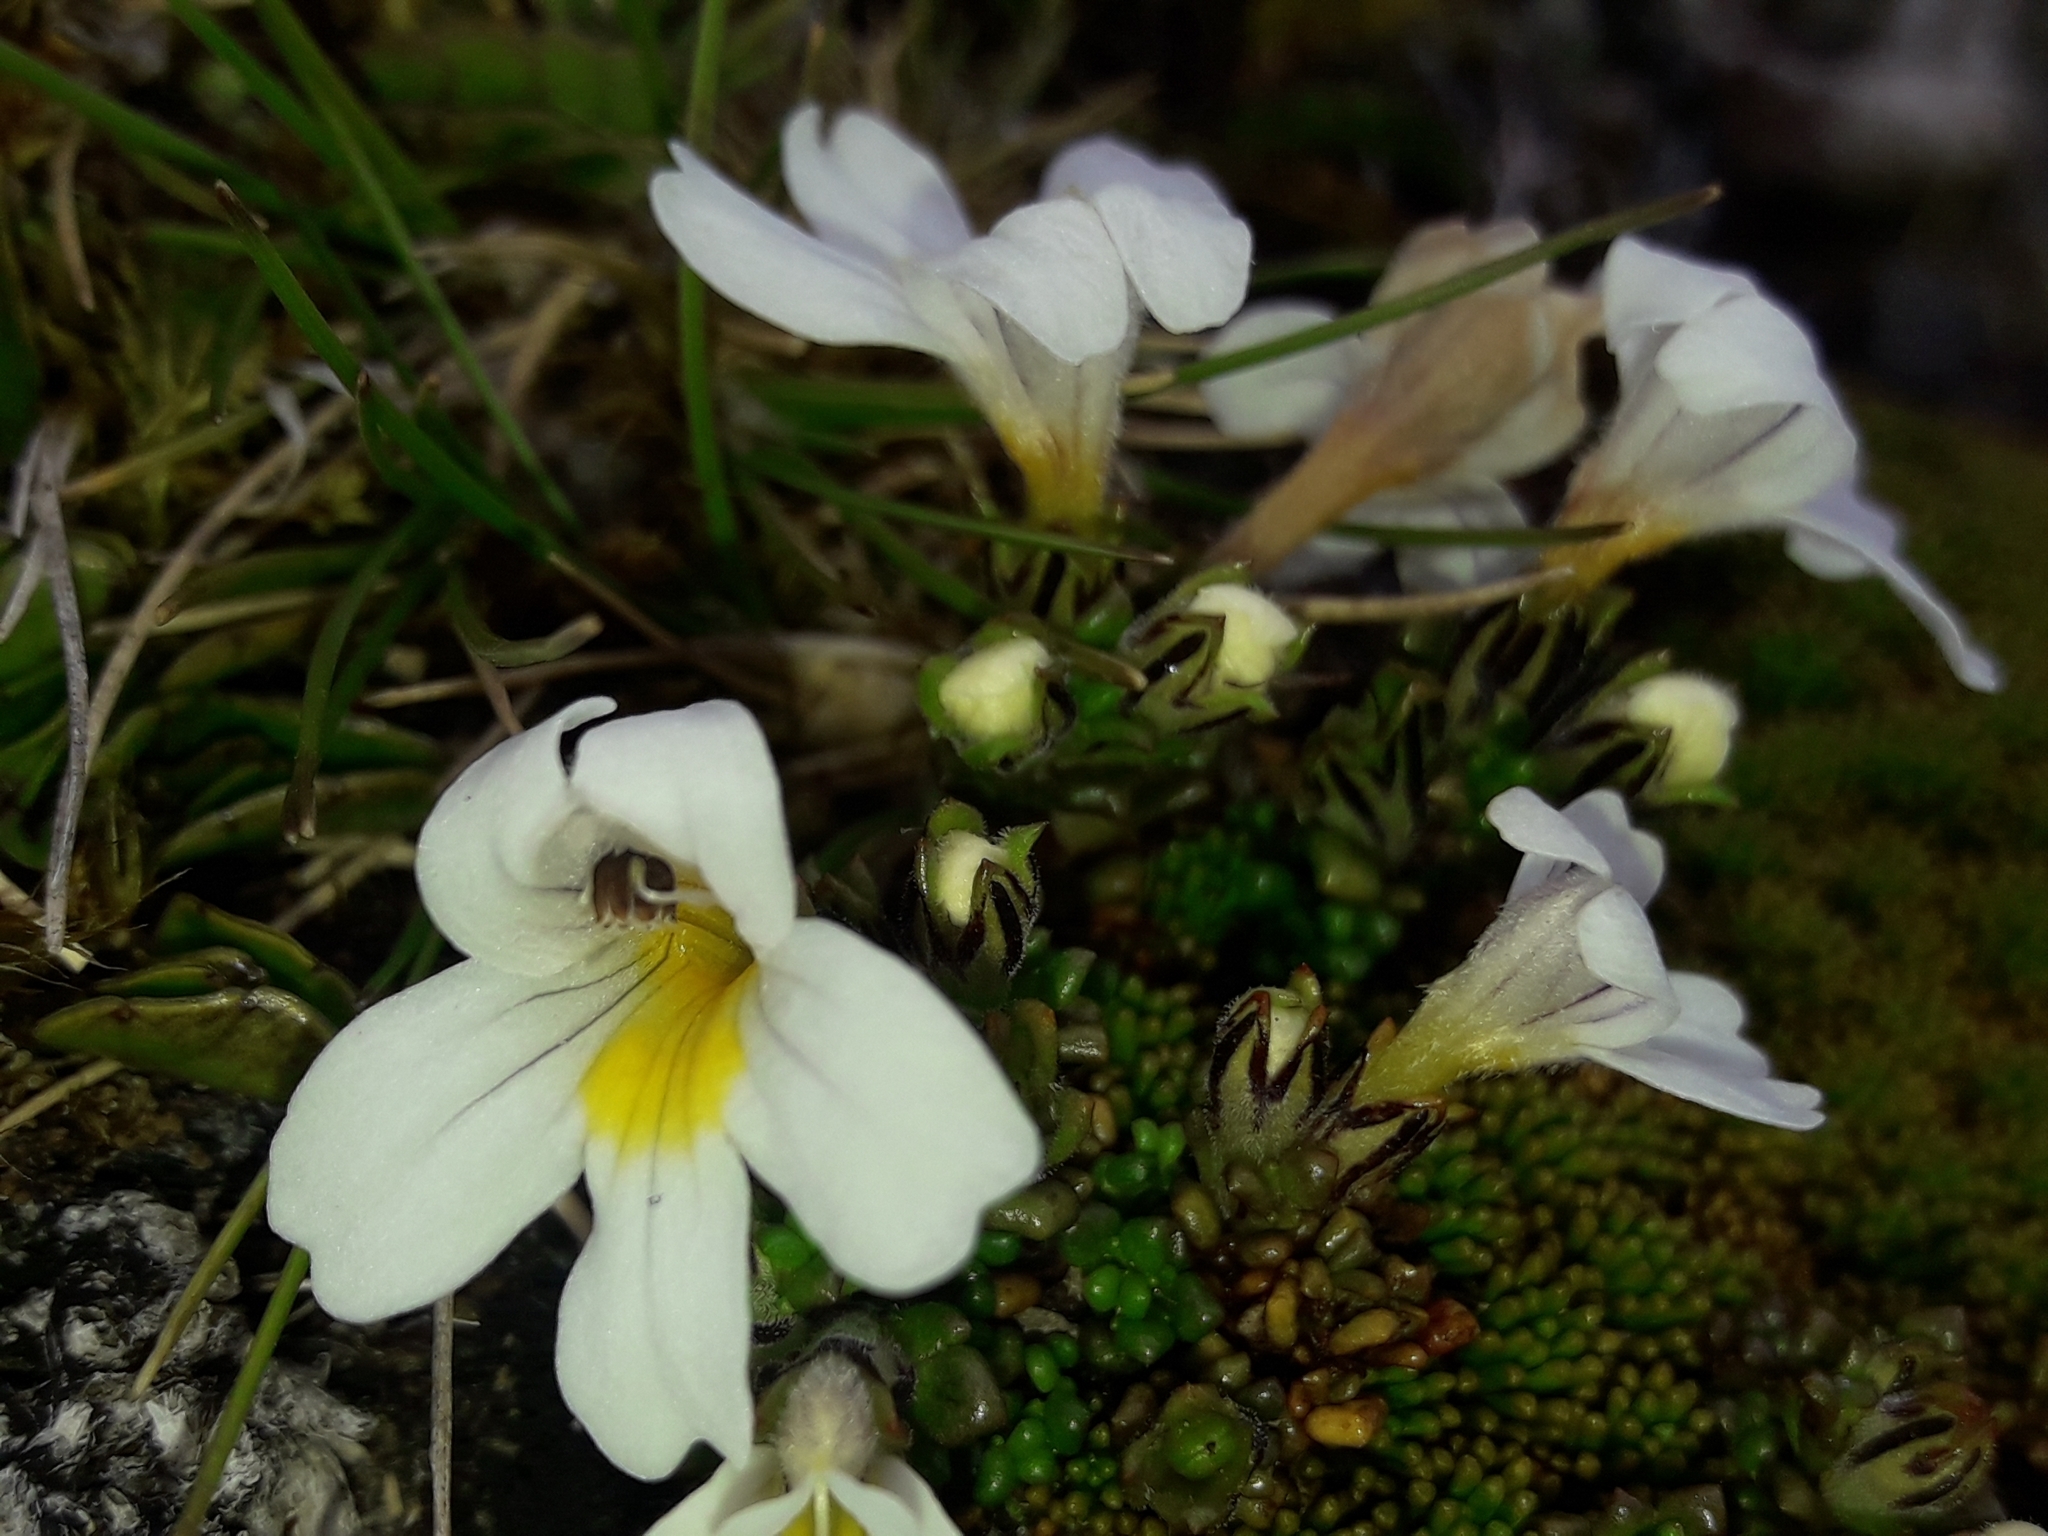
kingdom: Plantae
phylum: Tracheophyta
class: Magnoliopsida
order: Lamiales
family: Orobanchaceae
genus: Euphrasia
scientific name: Euphrasia revoluta
